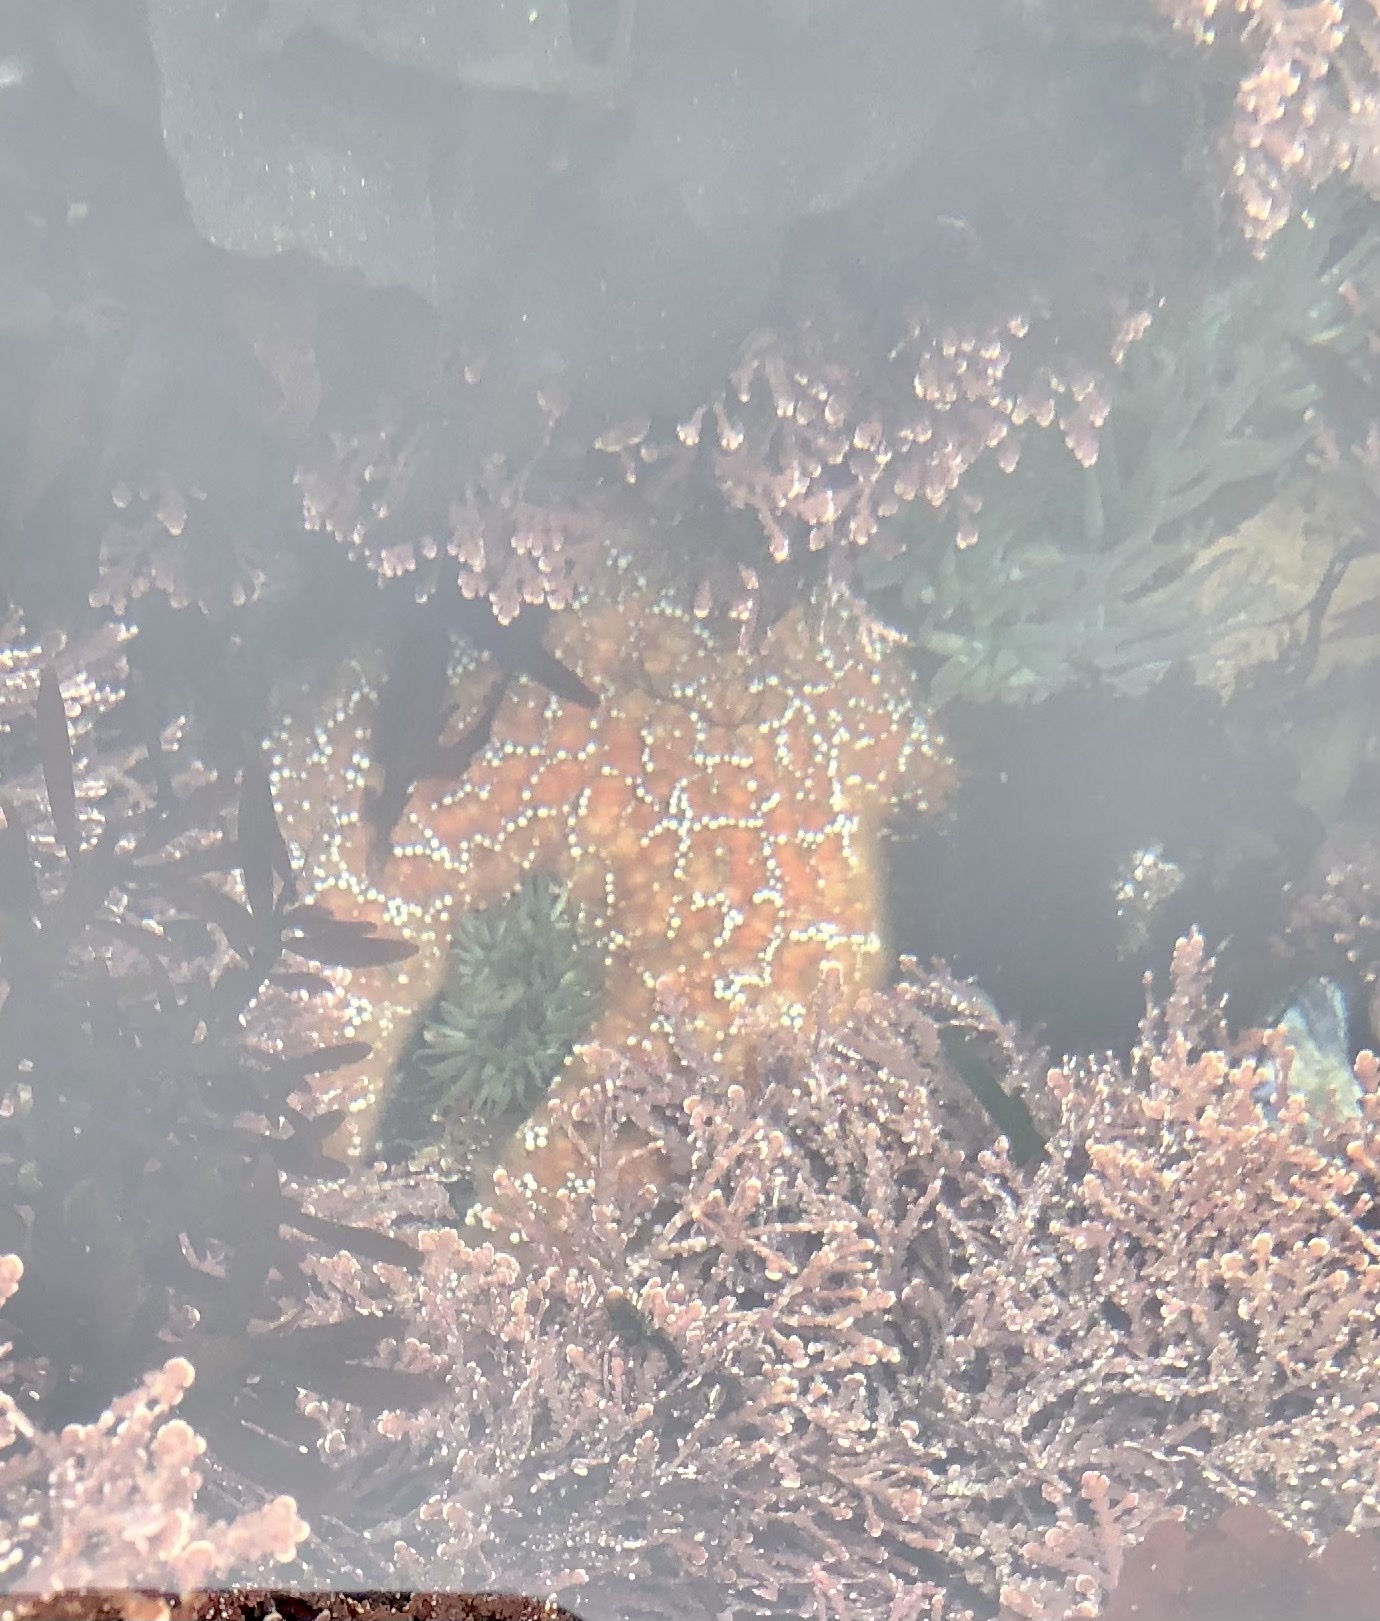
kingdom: Animalia
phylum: Echinodermata
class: Asteroidea
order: Forcipulatida
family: Asteriidae
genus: Pisaster
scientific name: Pisaster ochraceus
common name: Ochre stars
